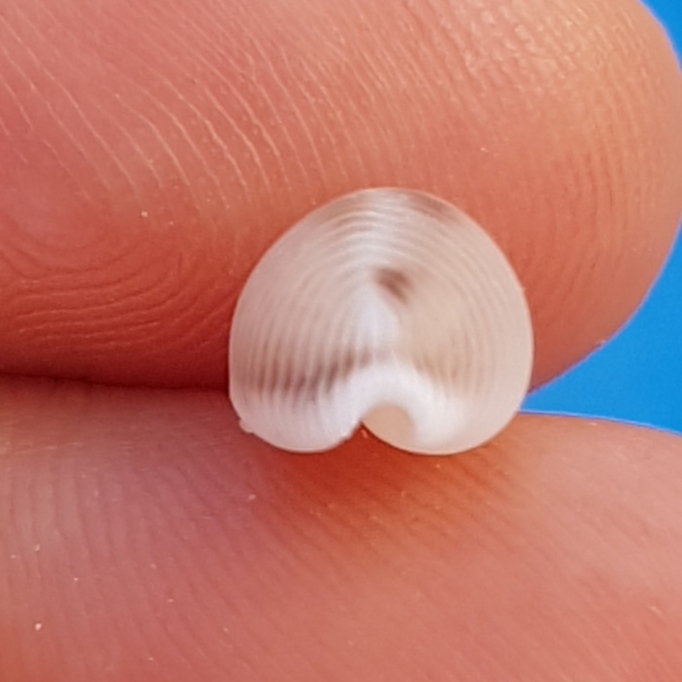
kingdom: Animalia
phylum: Mollusca
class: Gastropoda
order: Littorinimorpha
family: Triviidae
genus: Trivia
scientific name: Trivia monacha
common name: Spotted cowrie
